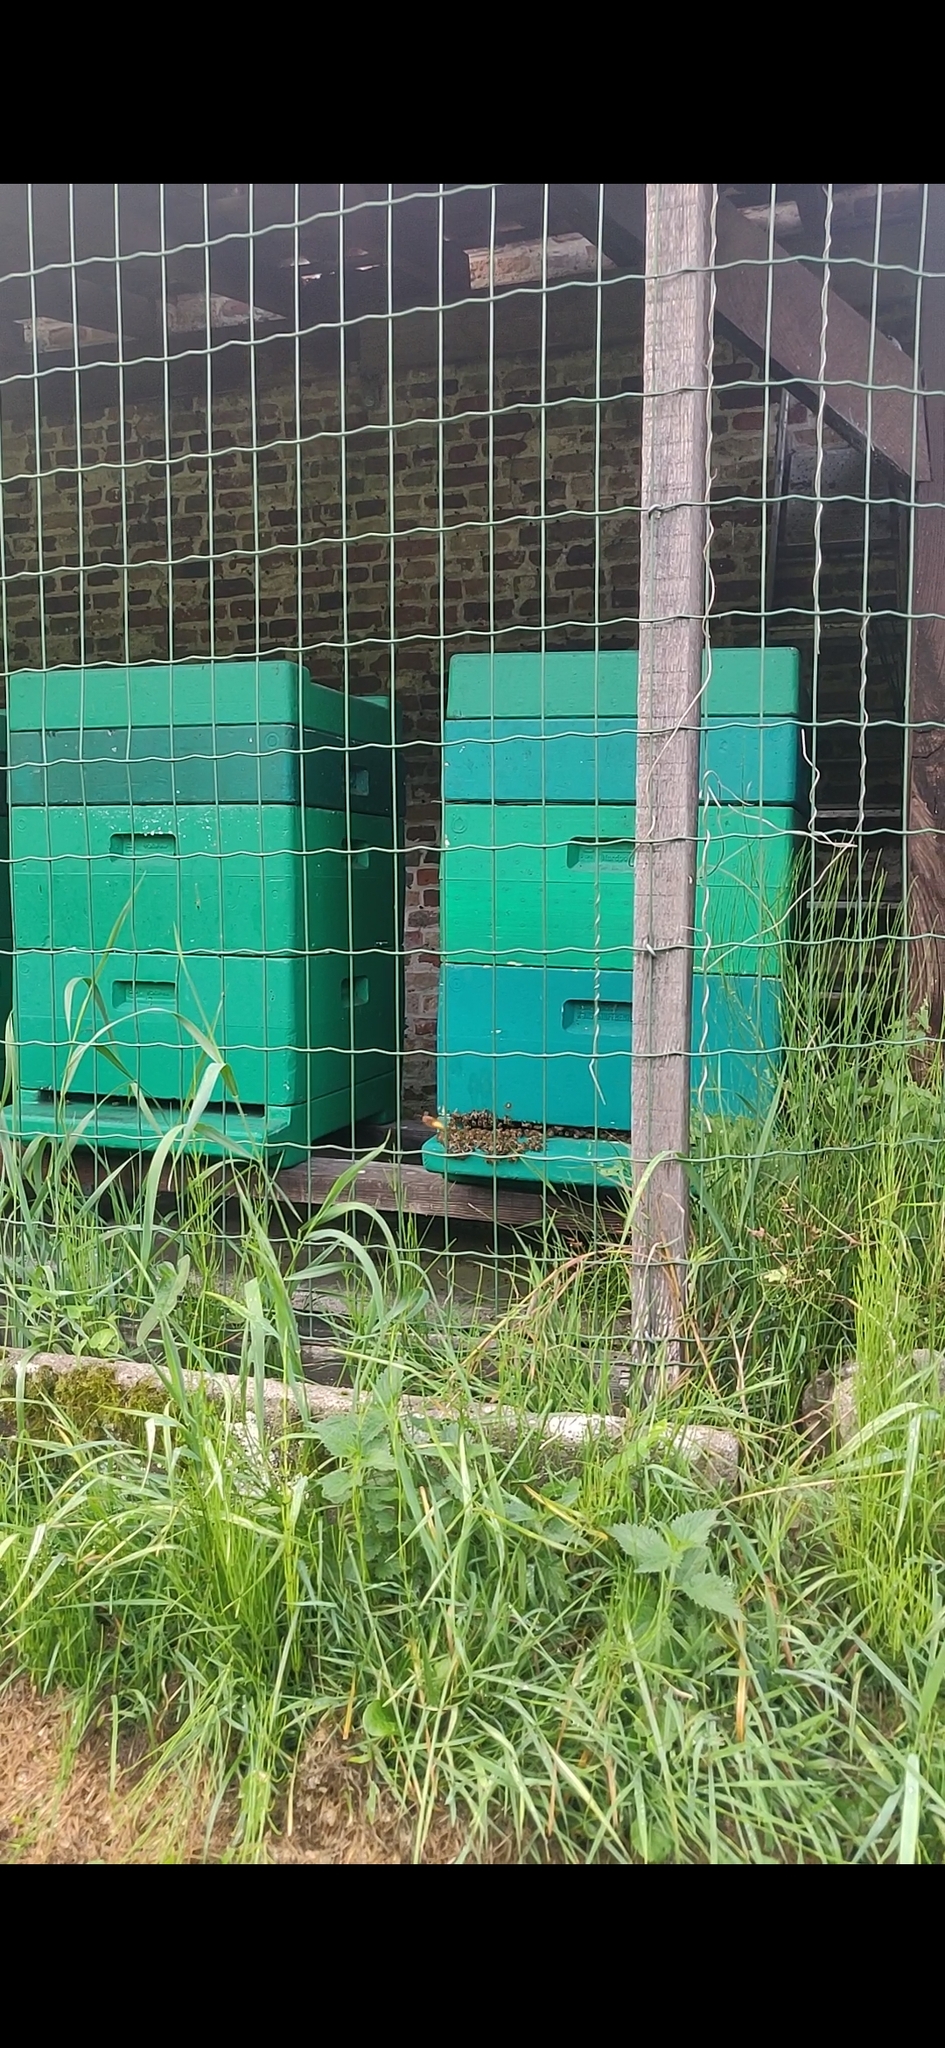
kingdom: Animalia
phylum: Arthropoda
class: Insecta
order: Hymenoptera
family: Vespidae
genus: Vespa
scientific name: Vespa crabro
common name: Hornet
